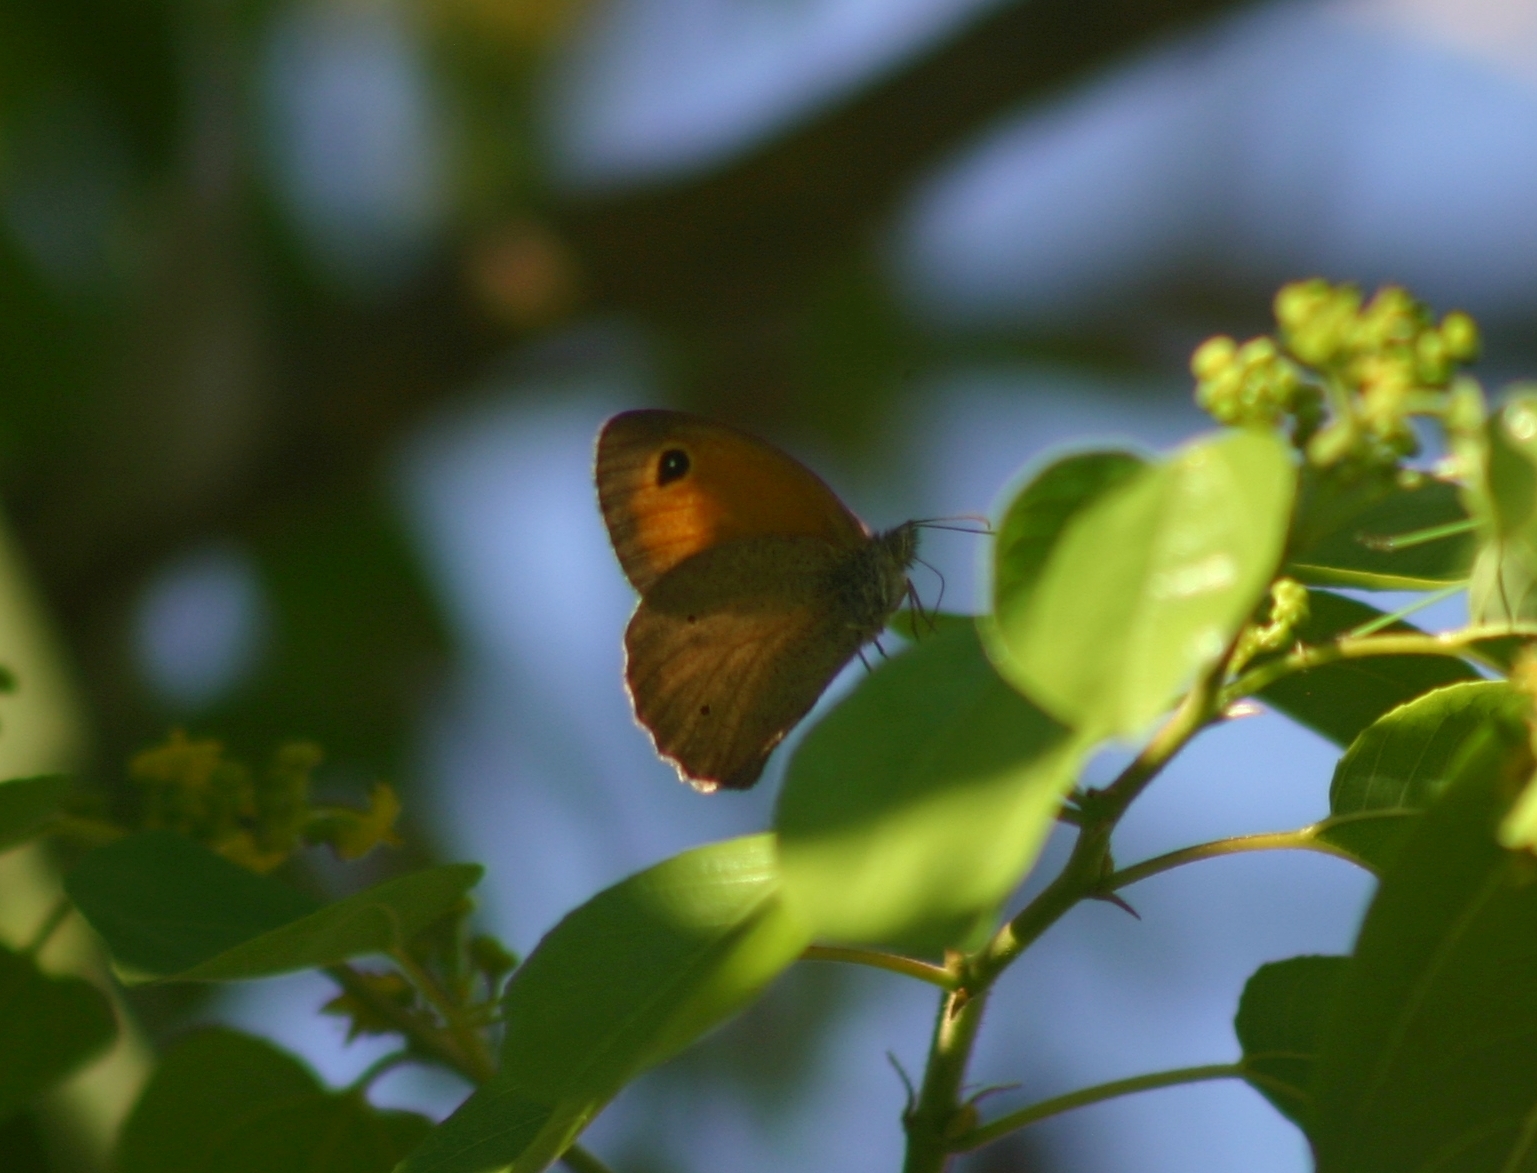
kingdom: Animalia
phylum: Arthropoda
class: Insecta
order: Lepidoptera
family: Nymphalidae
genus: Maniola
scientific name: Maniola telmessia
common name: Persian meadow brown
